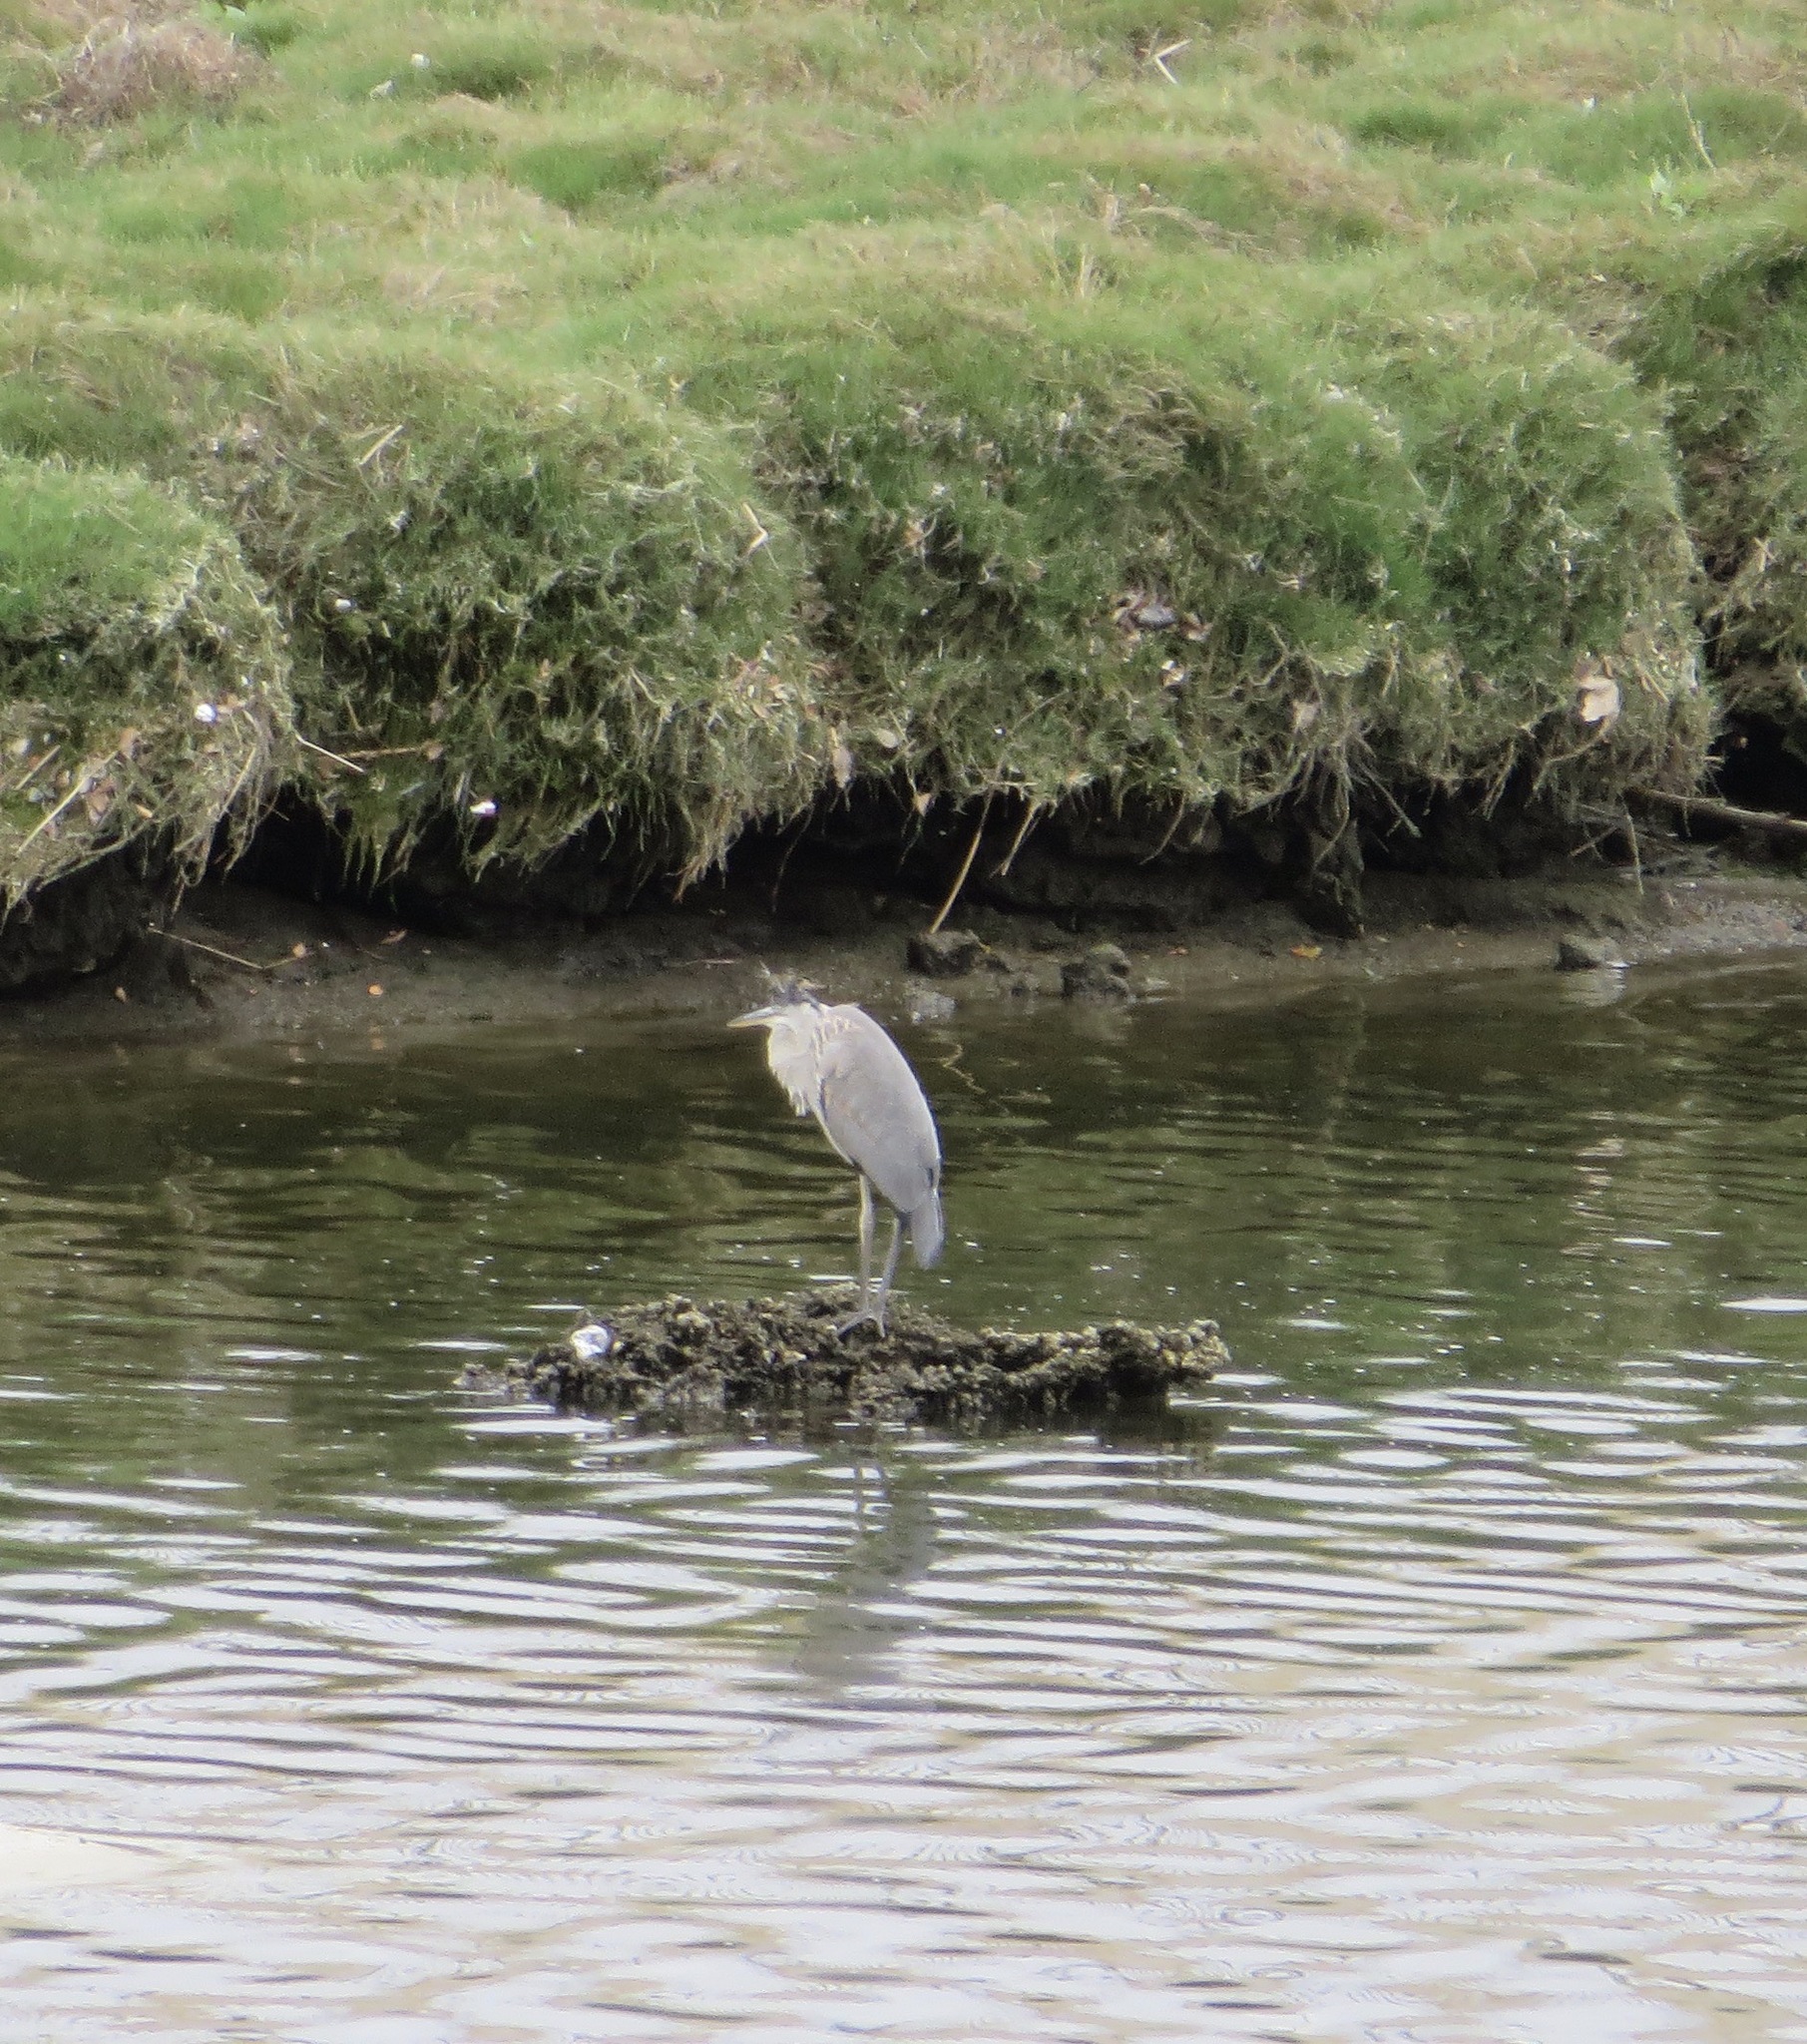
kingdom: Animalia
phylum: Chordata
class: Aves
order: Pelecaniformes
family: Ardeidae
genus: Ardea
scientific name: Ardea herodias
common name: Great blue heron
